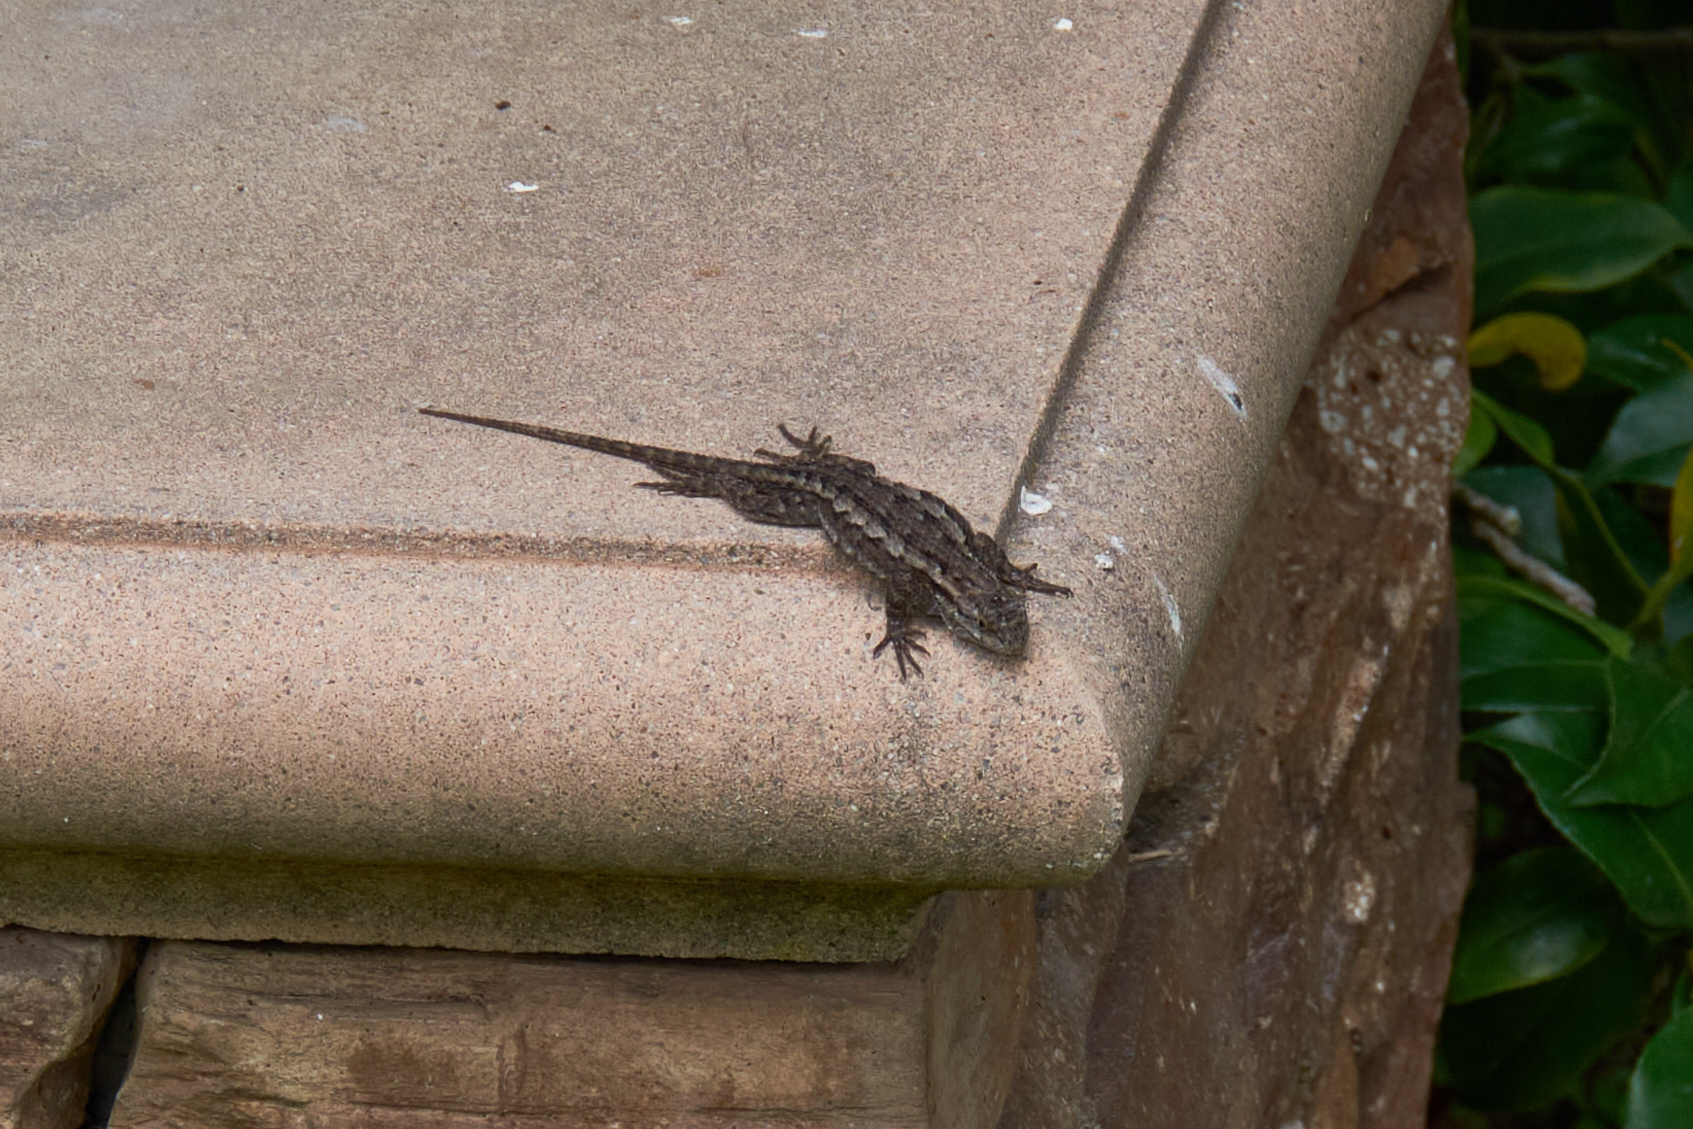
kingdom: Animalia
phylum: Chordata
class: Squamata
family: Phrynosomatidae
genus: Sceloporus
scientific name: Sceloporus occidentalis
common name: Western fence lizard
